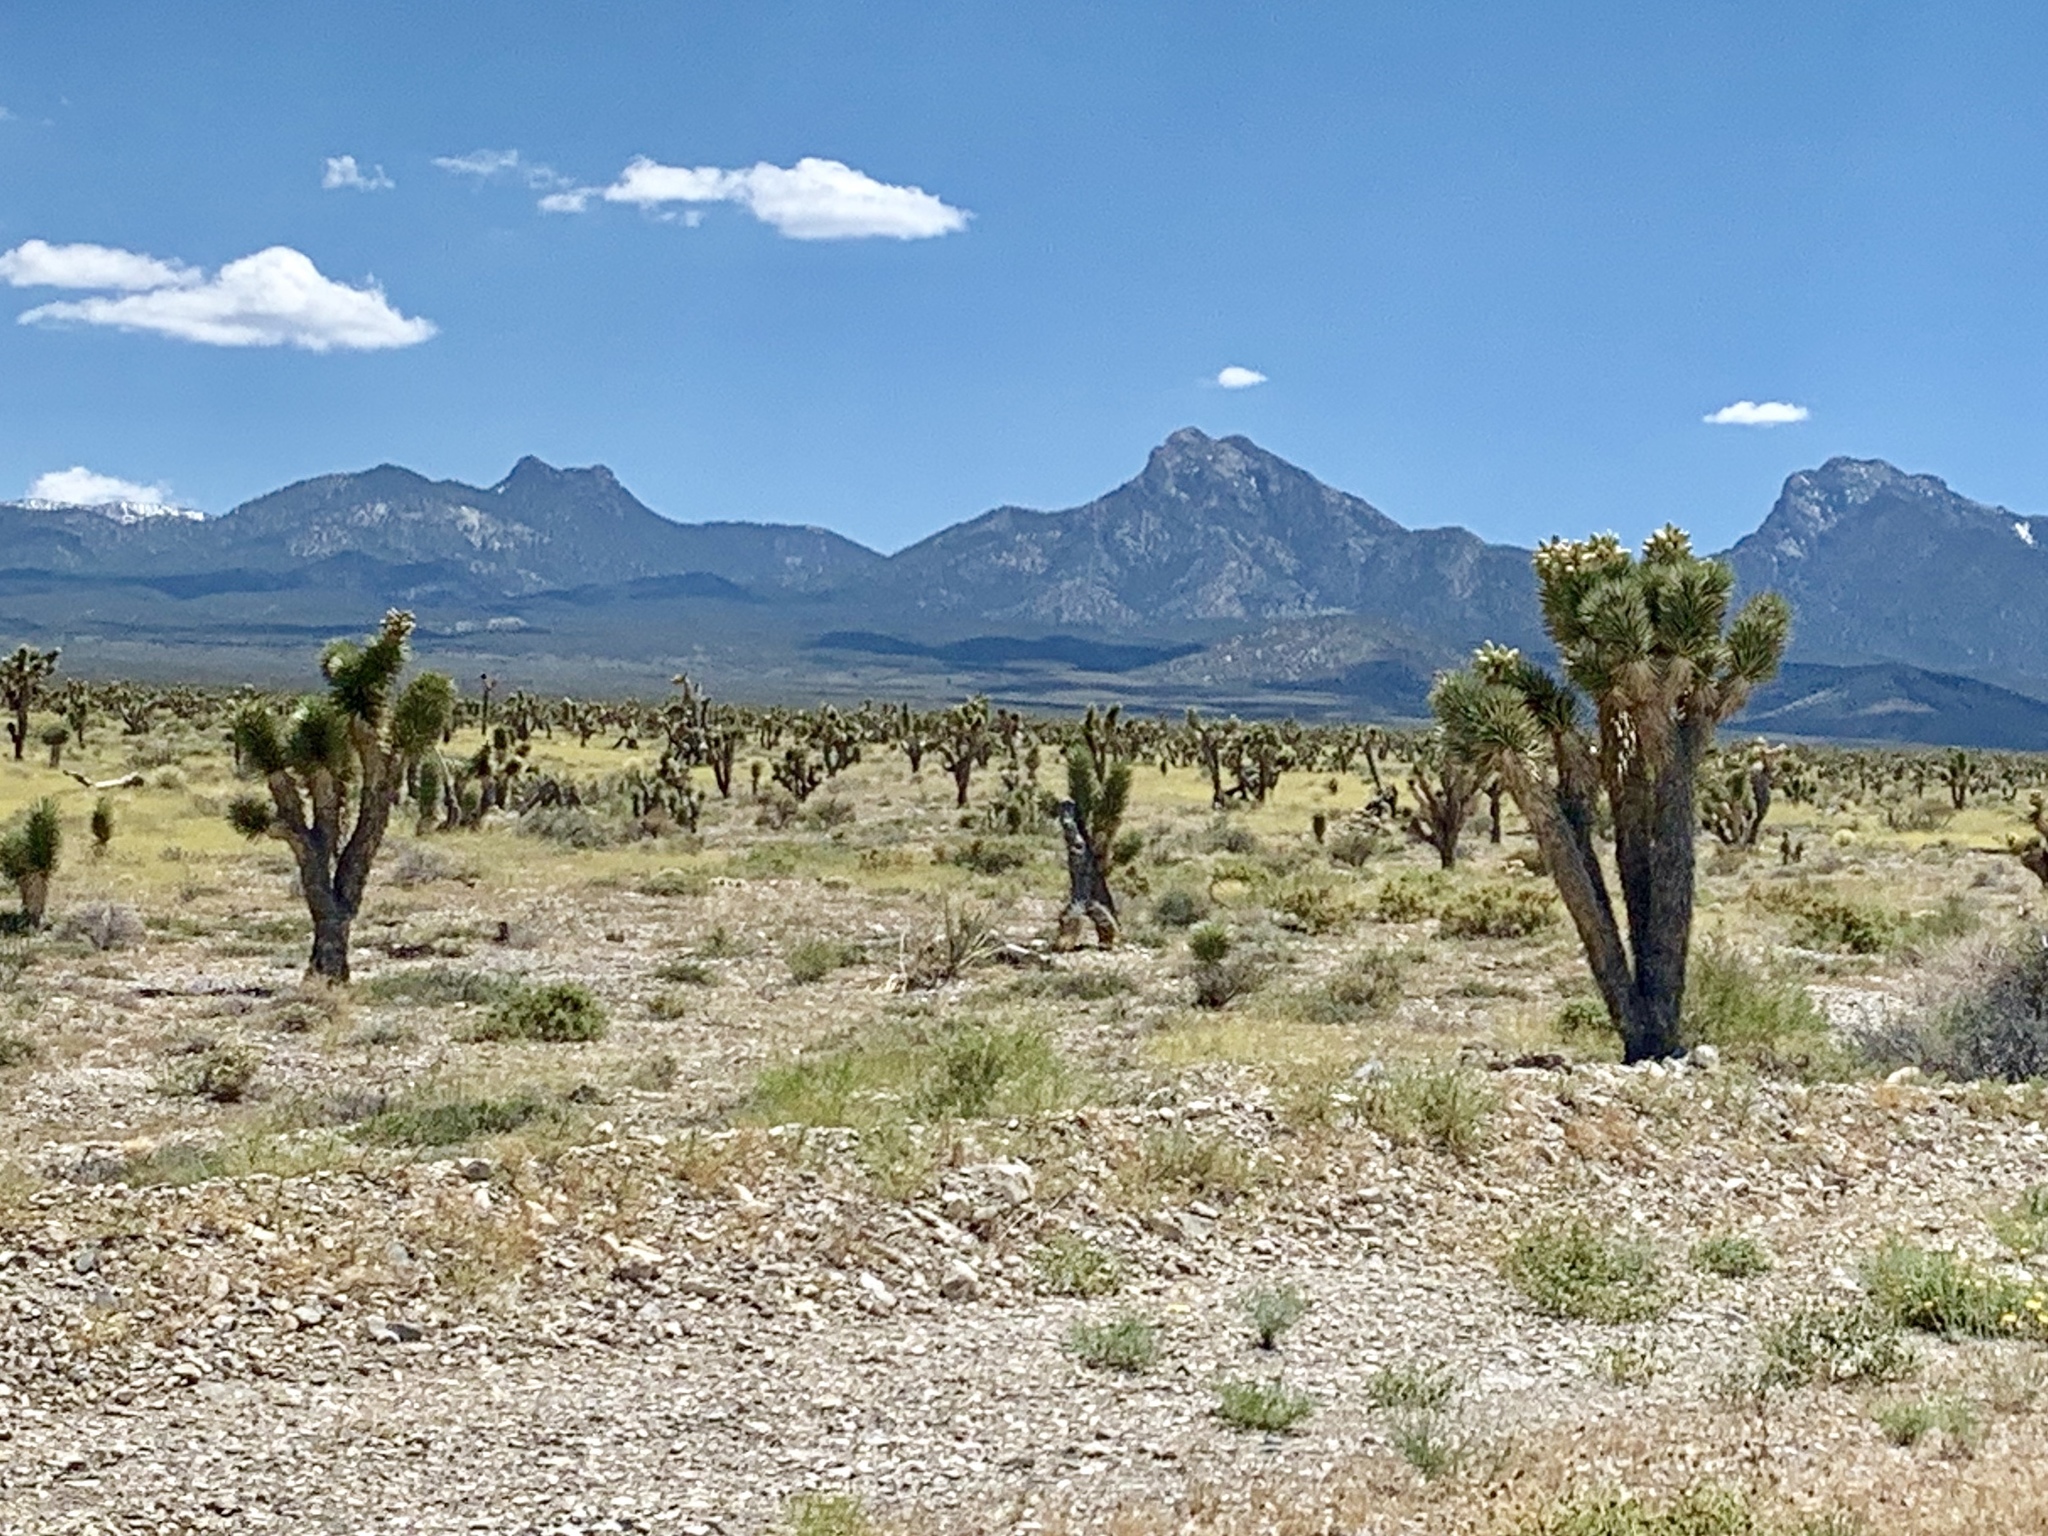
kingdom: Plantae
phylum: Tracheophyta
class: Liliopsida
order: Asparagales
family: Asparagaceae
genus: Yucca
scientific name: Yucca brevifolia
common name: Joshua tree
